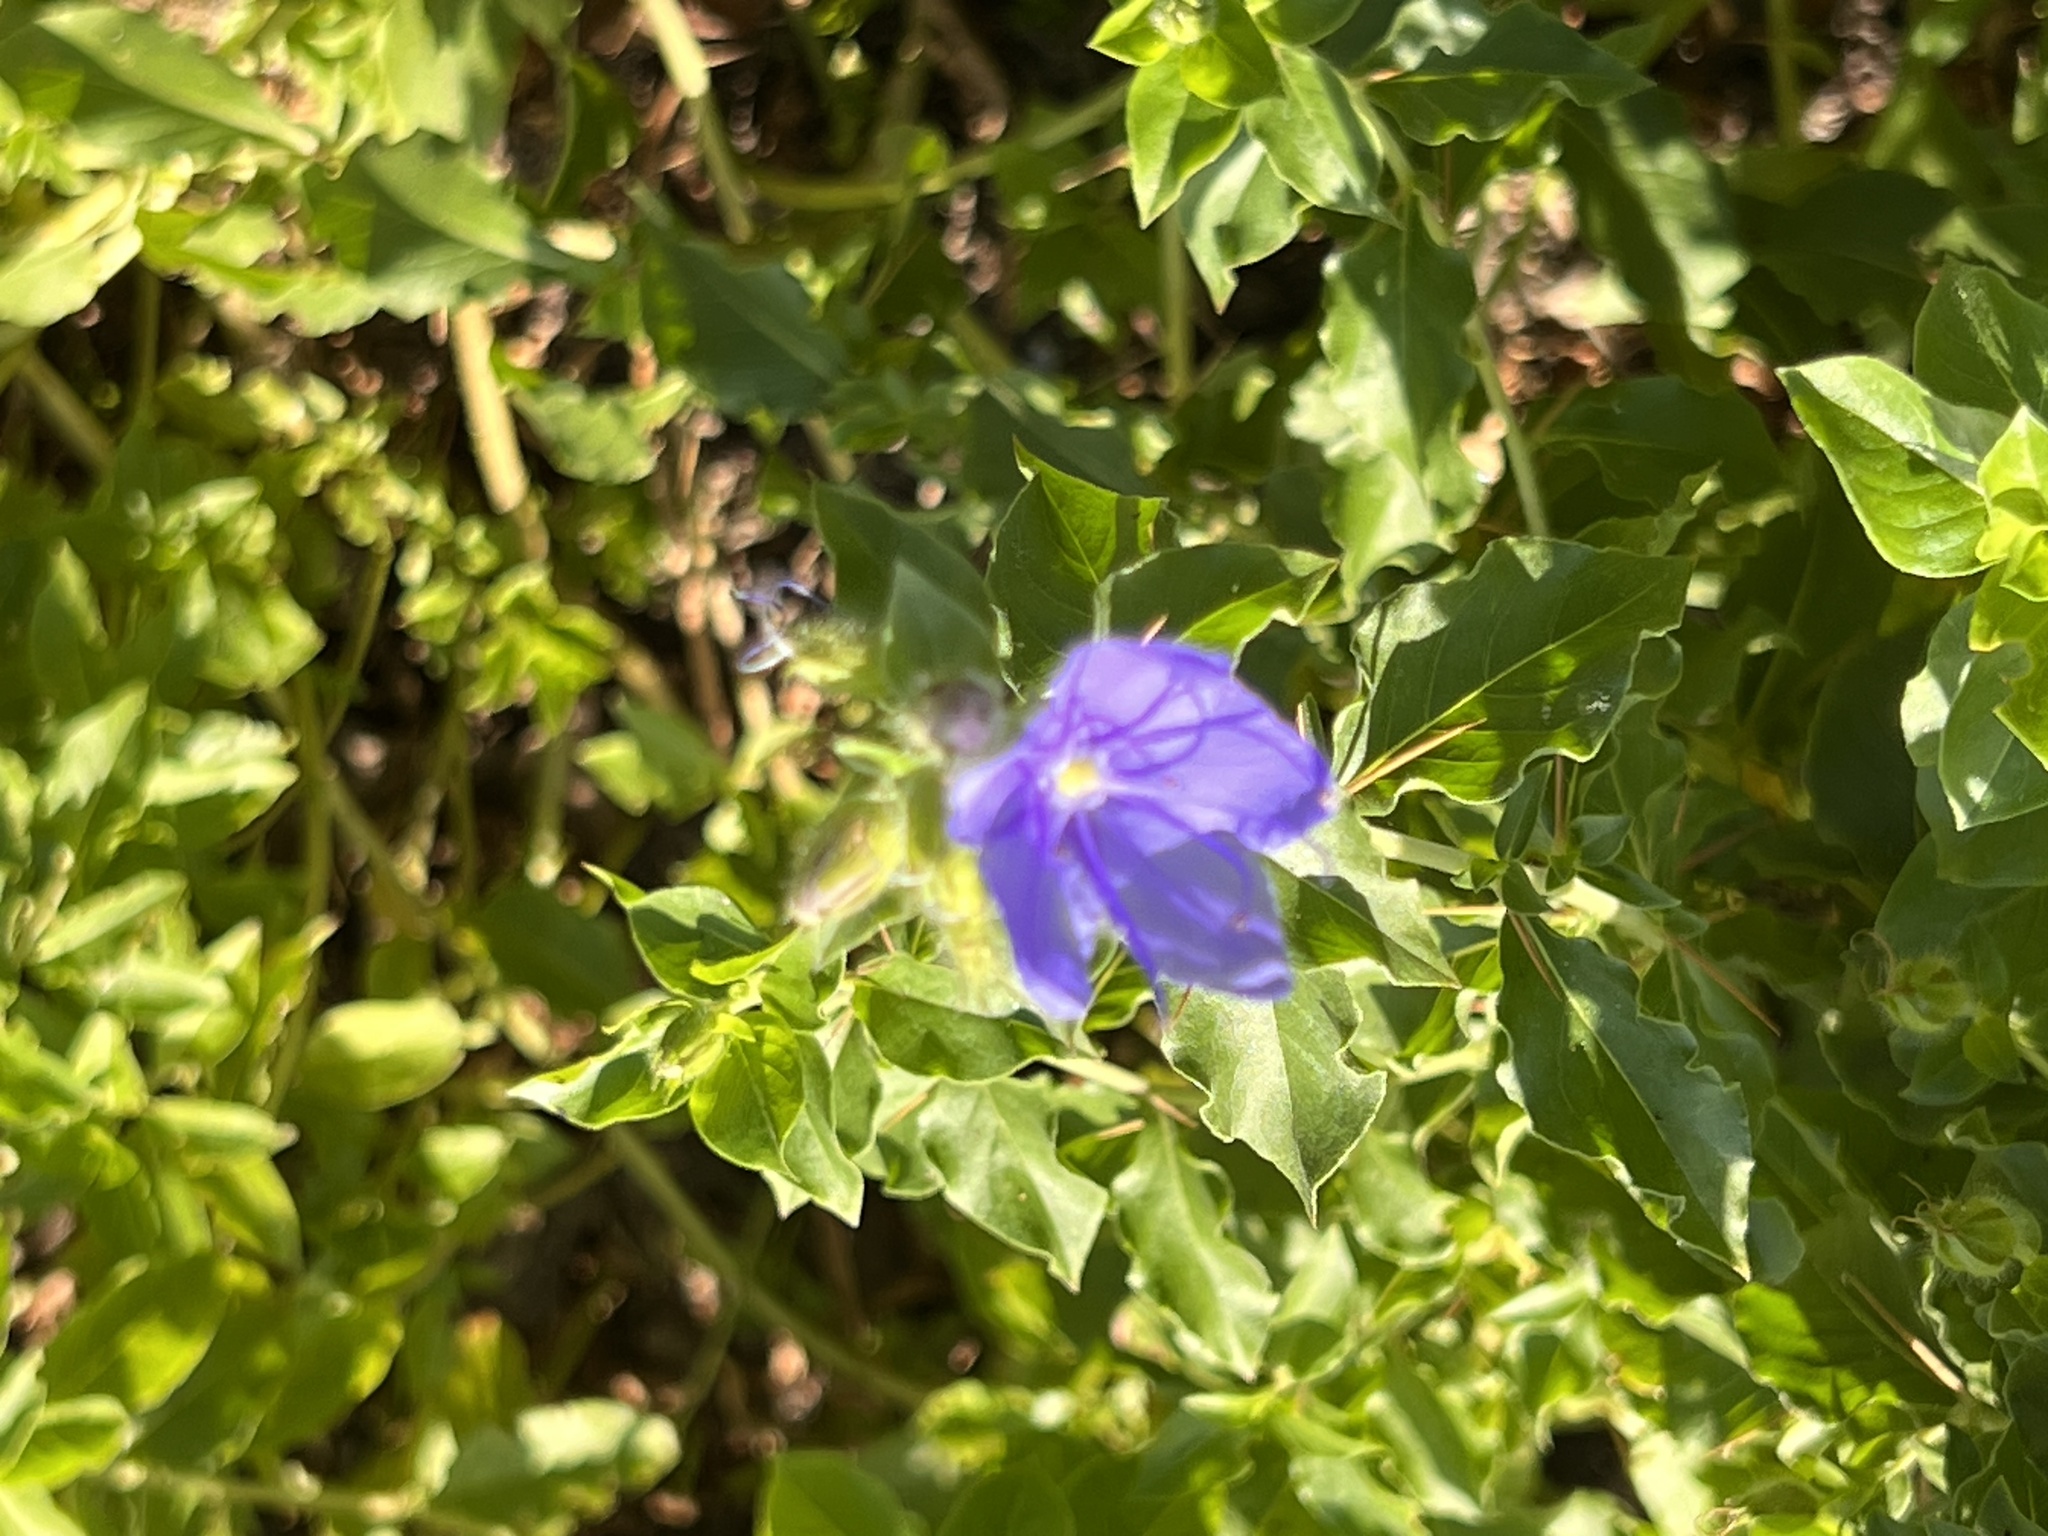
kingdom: Plantae
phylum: Tracheophyta
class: Magnoliopsida
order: Solanales
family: Hydroleaceae
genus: Hydrolea
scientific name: Hydrolea ovata
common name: Ovate false fiddleleaf
